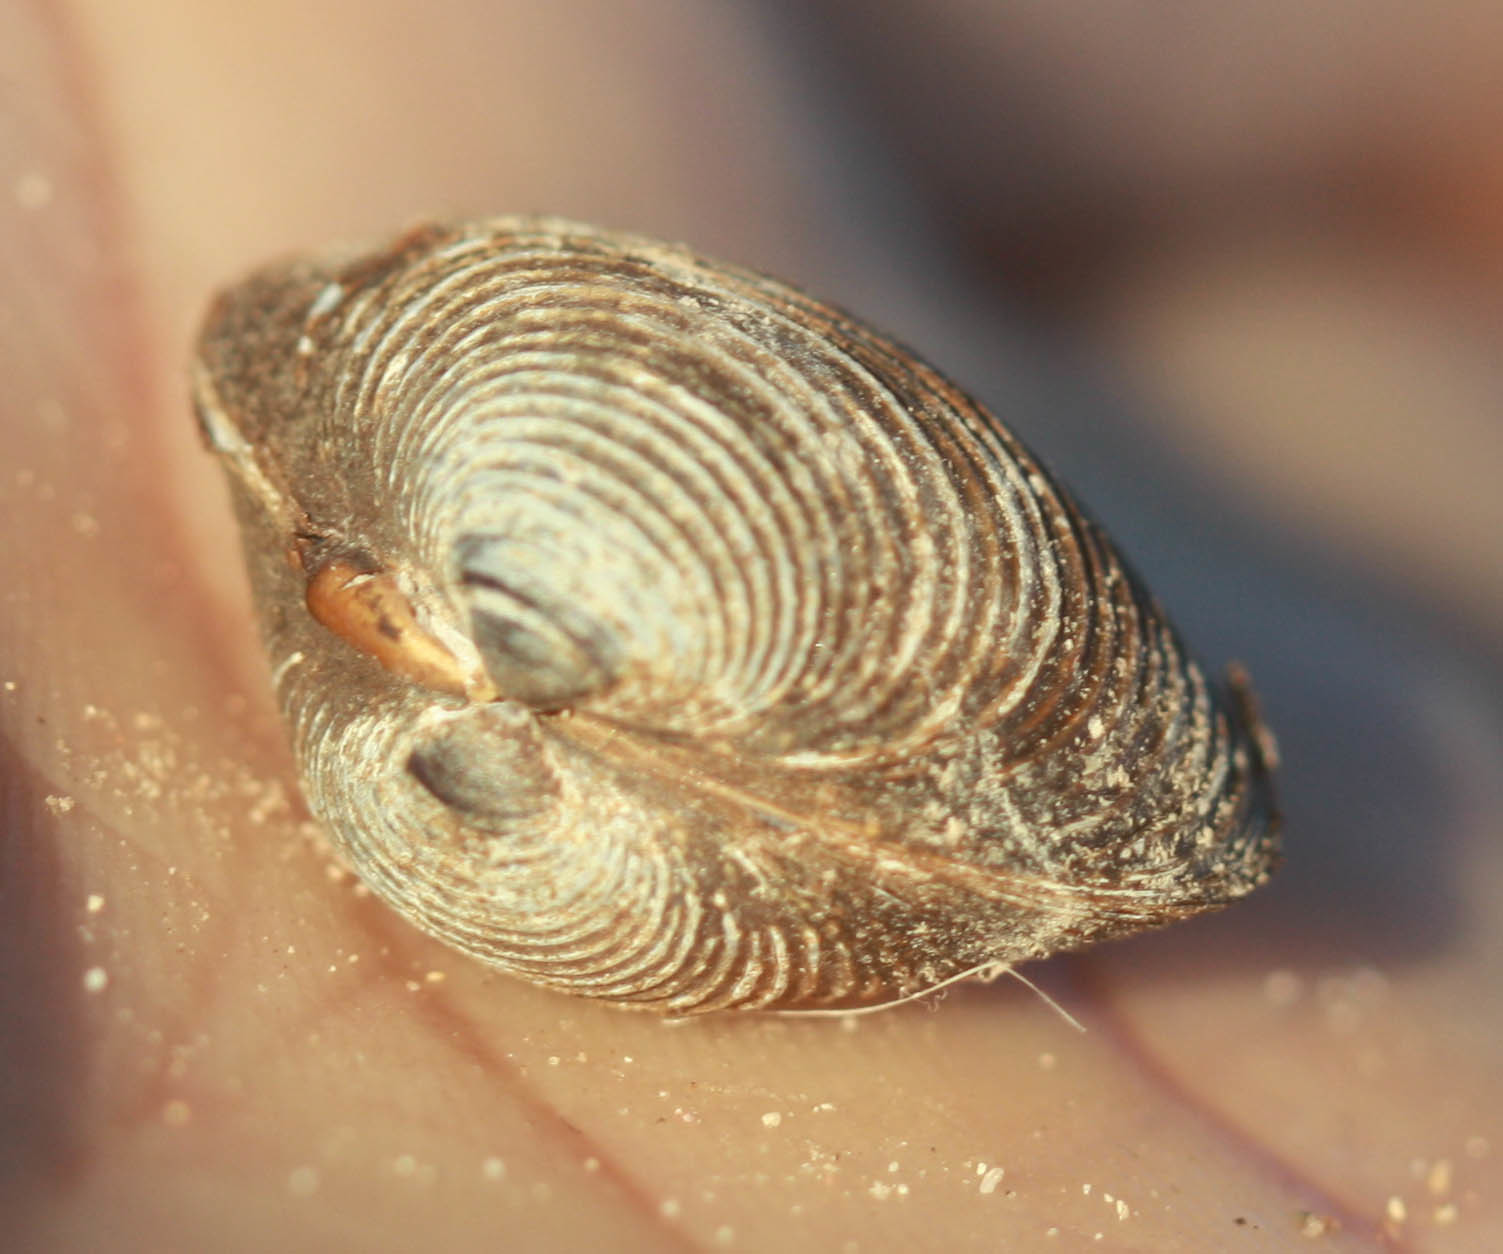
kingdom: Animalia
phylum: Mollusca
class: Bivalvia
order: Venerida
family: Cyrenidae
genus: Corbicula
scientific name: Corbicula fluminea
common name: Asian clam
